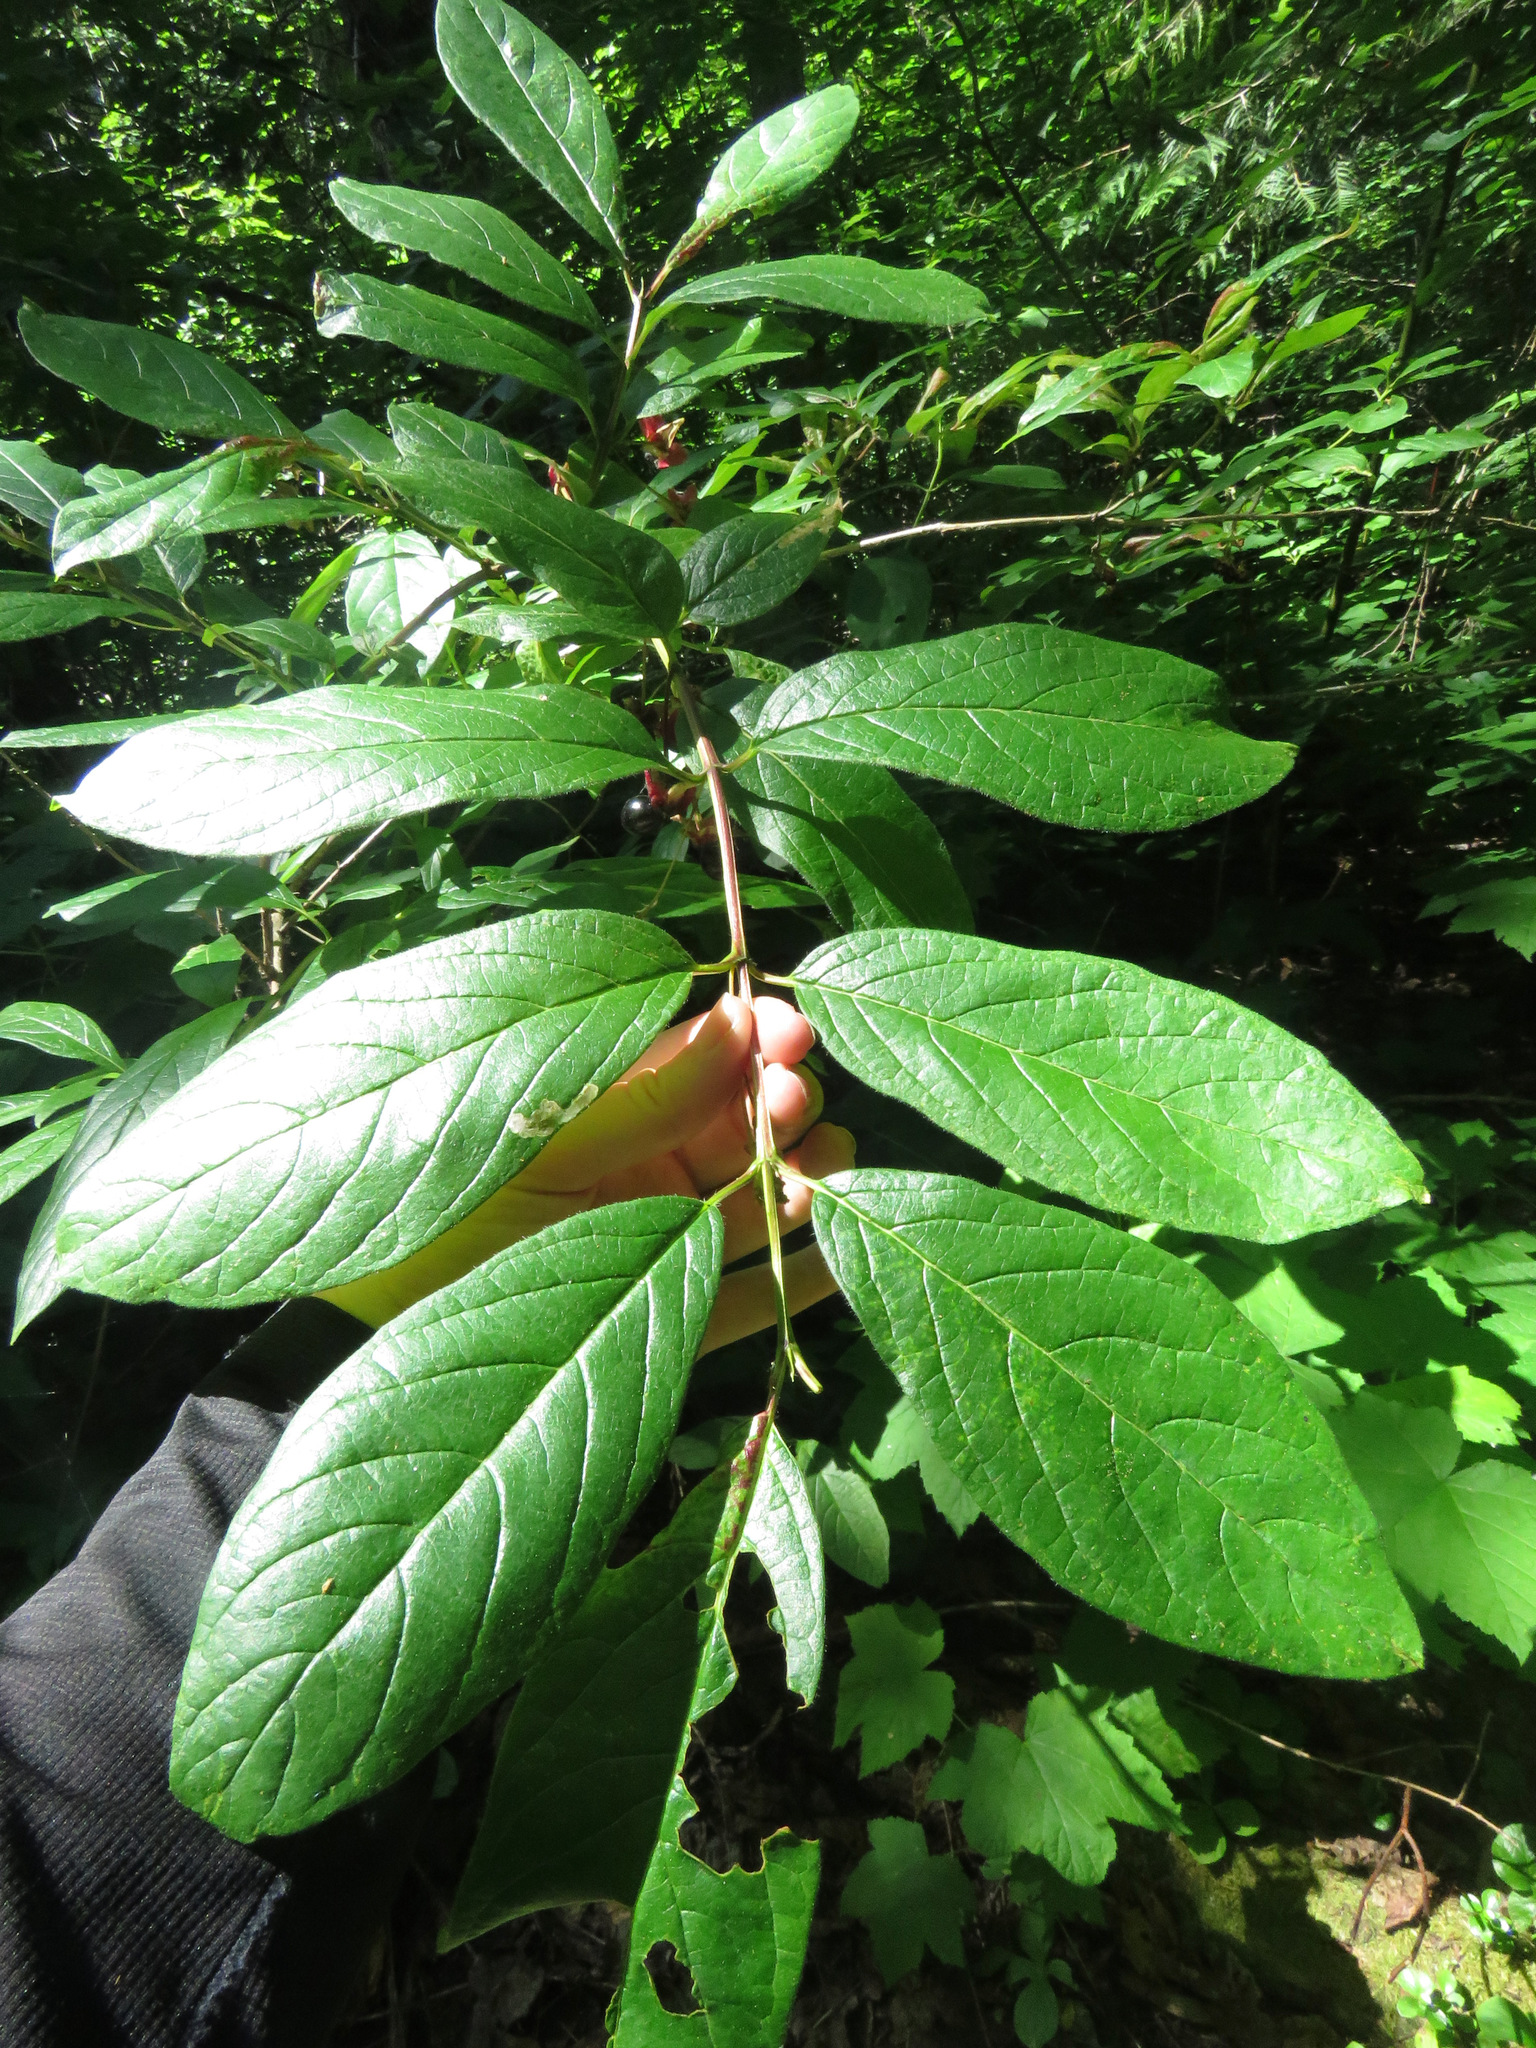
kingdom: Plantae
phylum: Tracheophyta
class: Magnoliopsida
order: Dipsacales
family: Caprifoliaceae
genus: Lonicera
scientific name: Lonicera involucrata
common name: Californian honeysuckle
